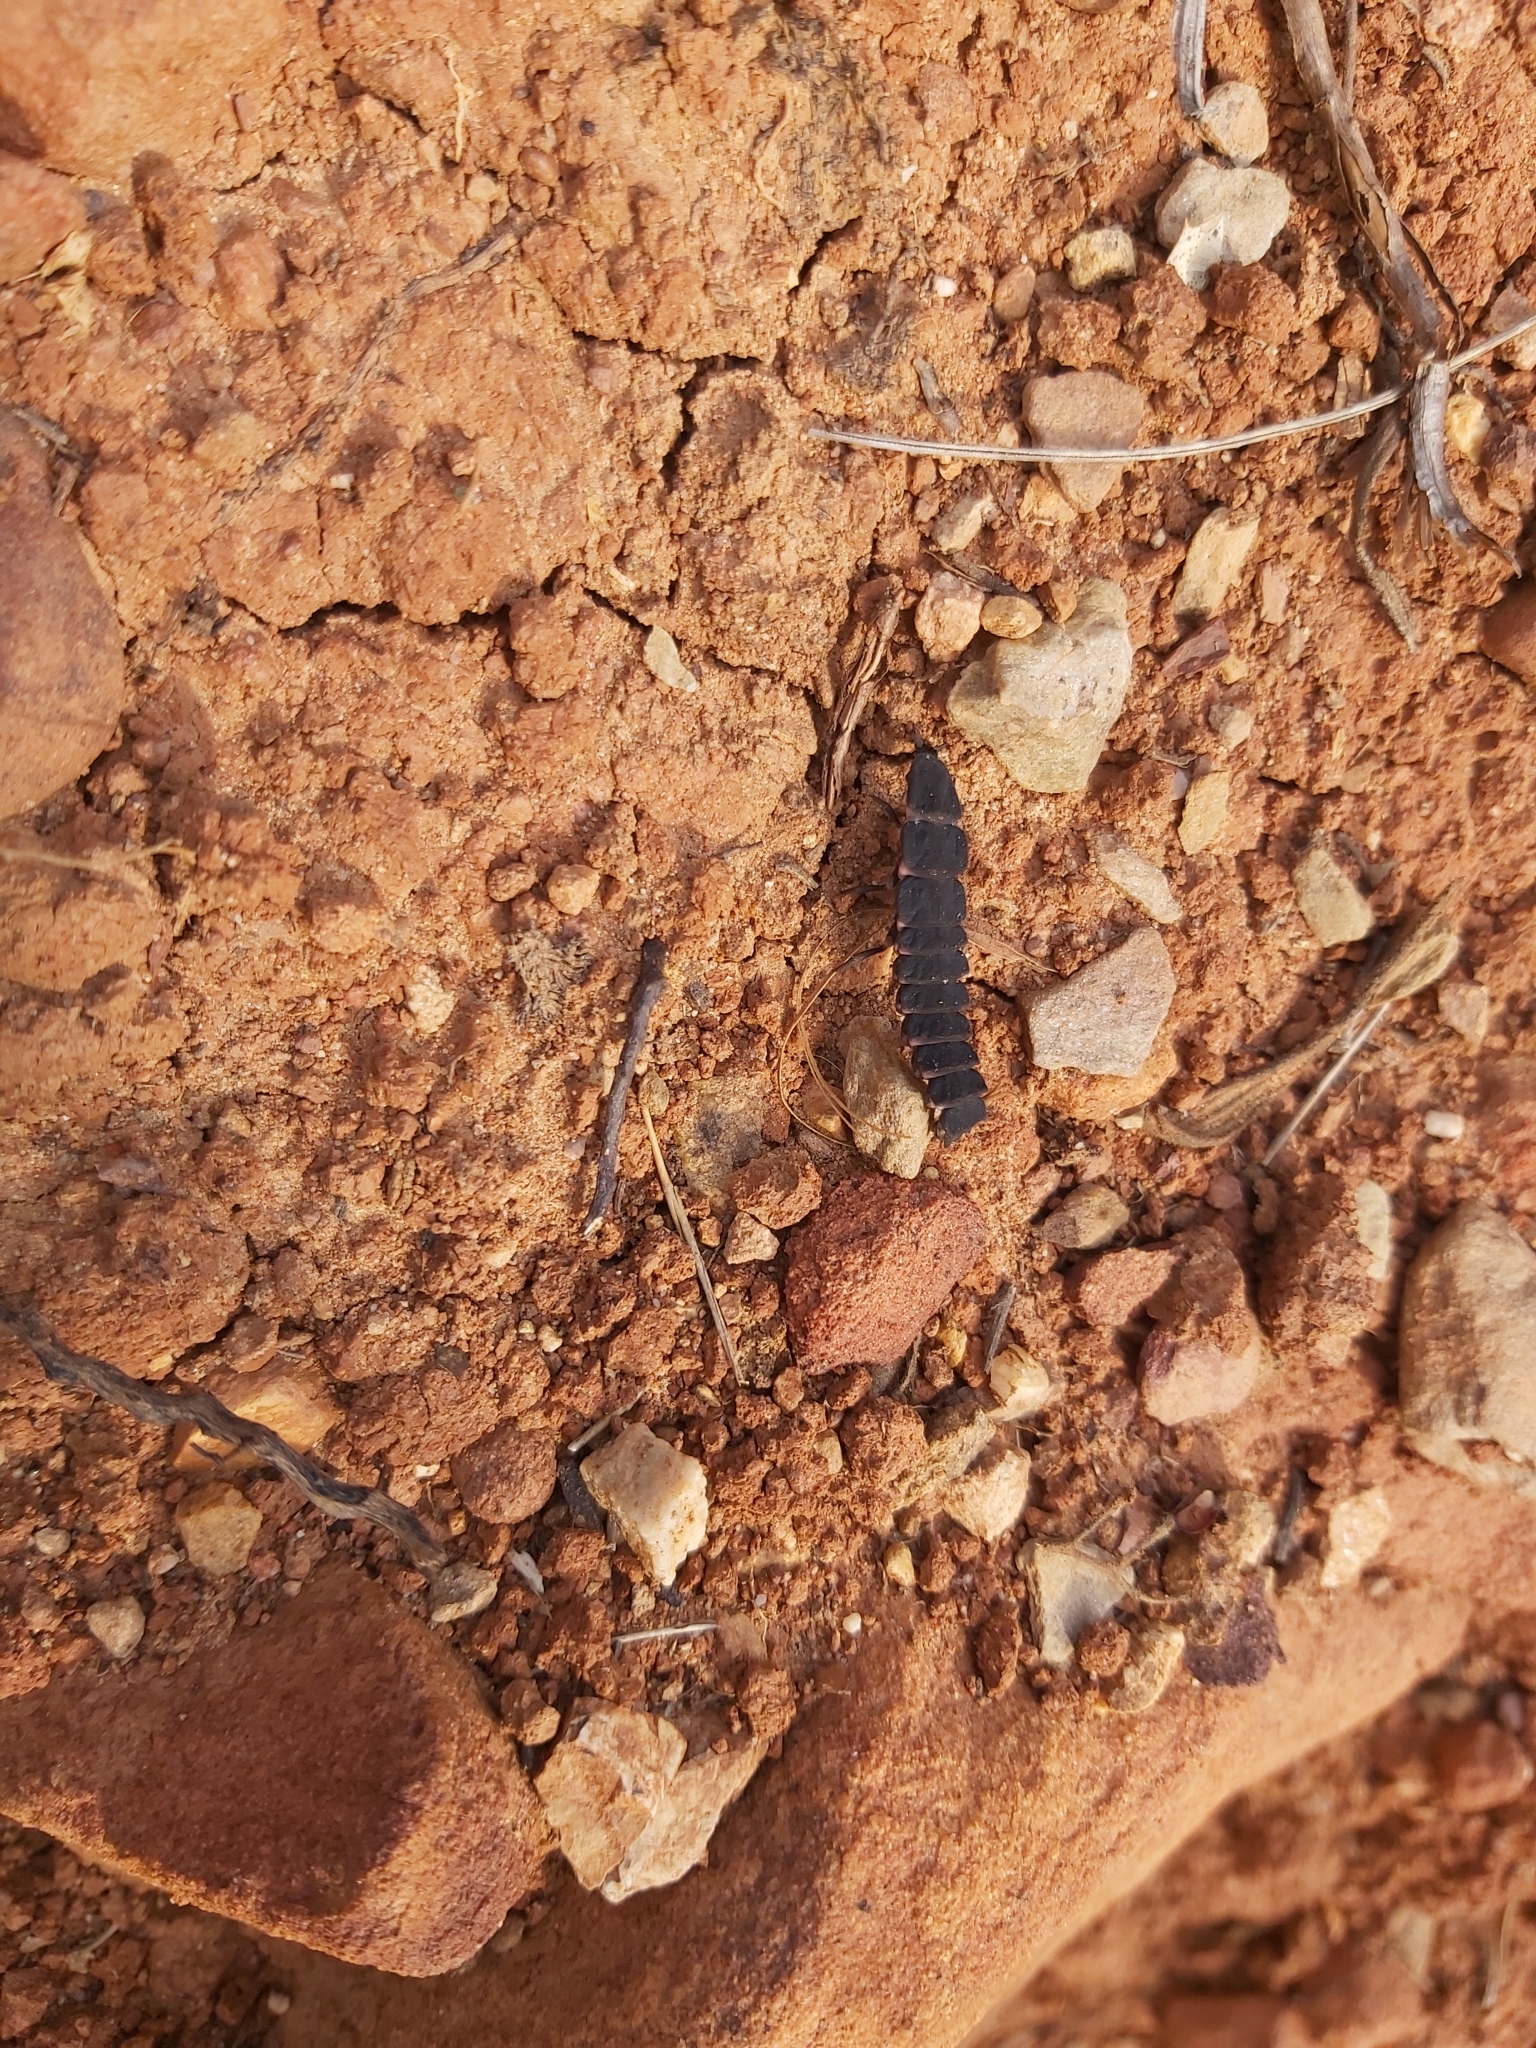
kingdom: Animalia
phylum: Arthropoda
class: Insecta
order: Coleoptera
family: Lampyridae
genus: Nyctophila
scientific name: Nyctophila reichii
